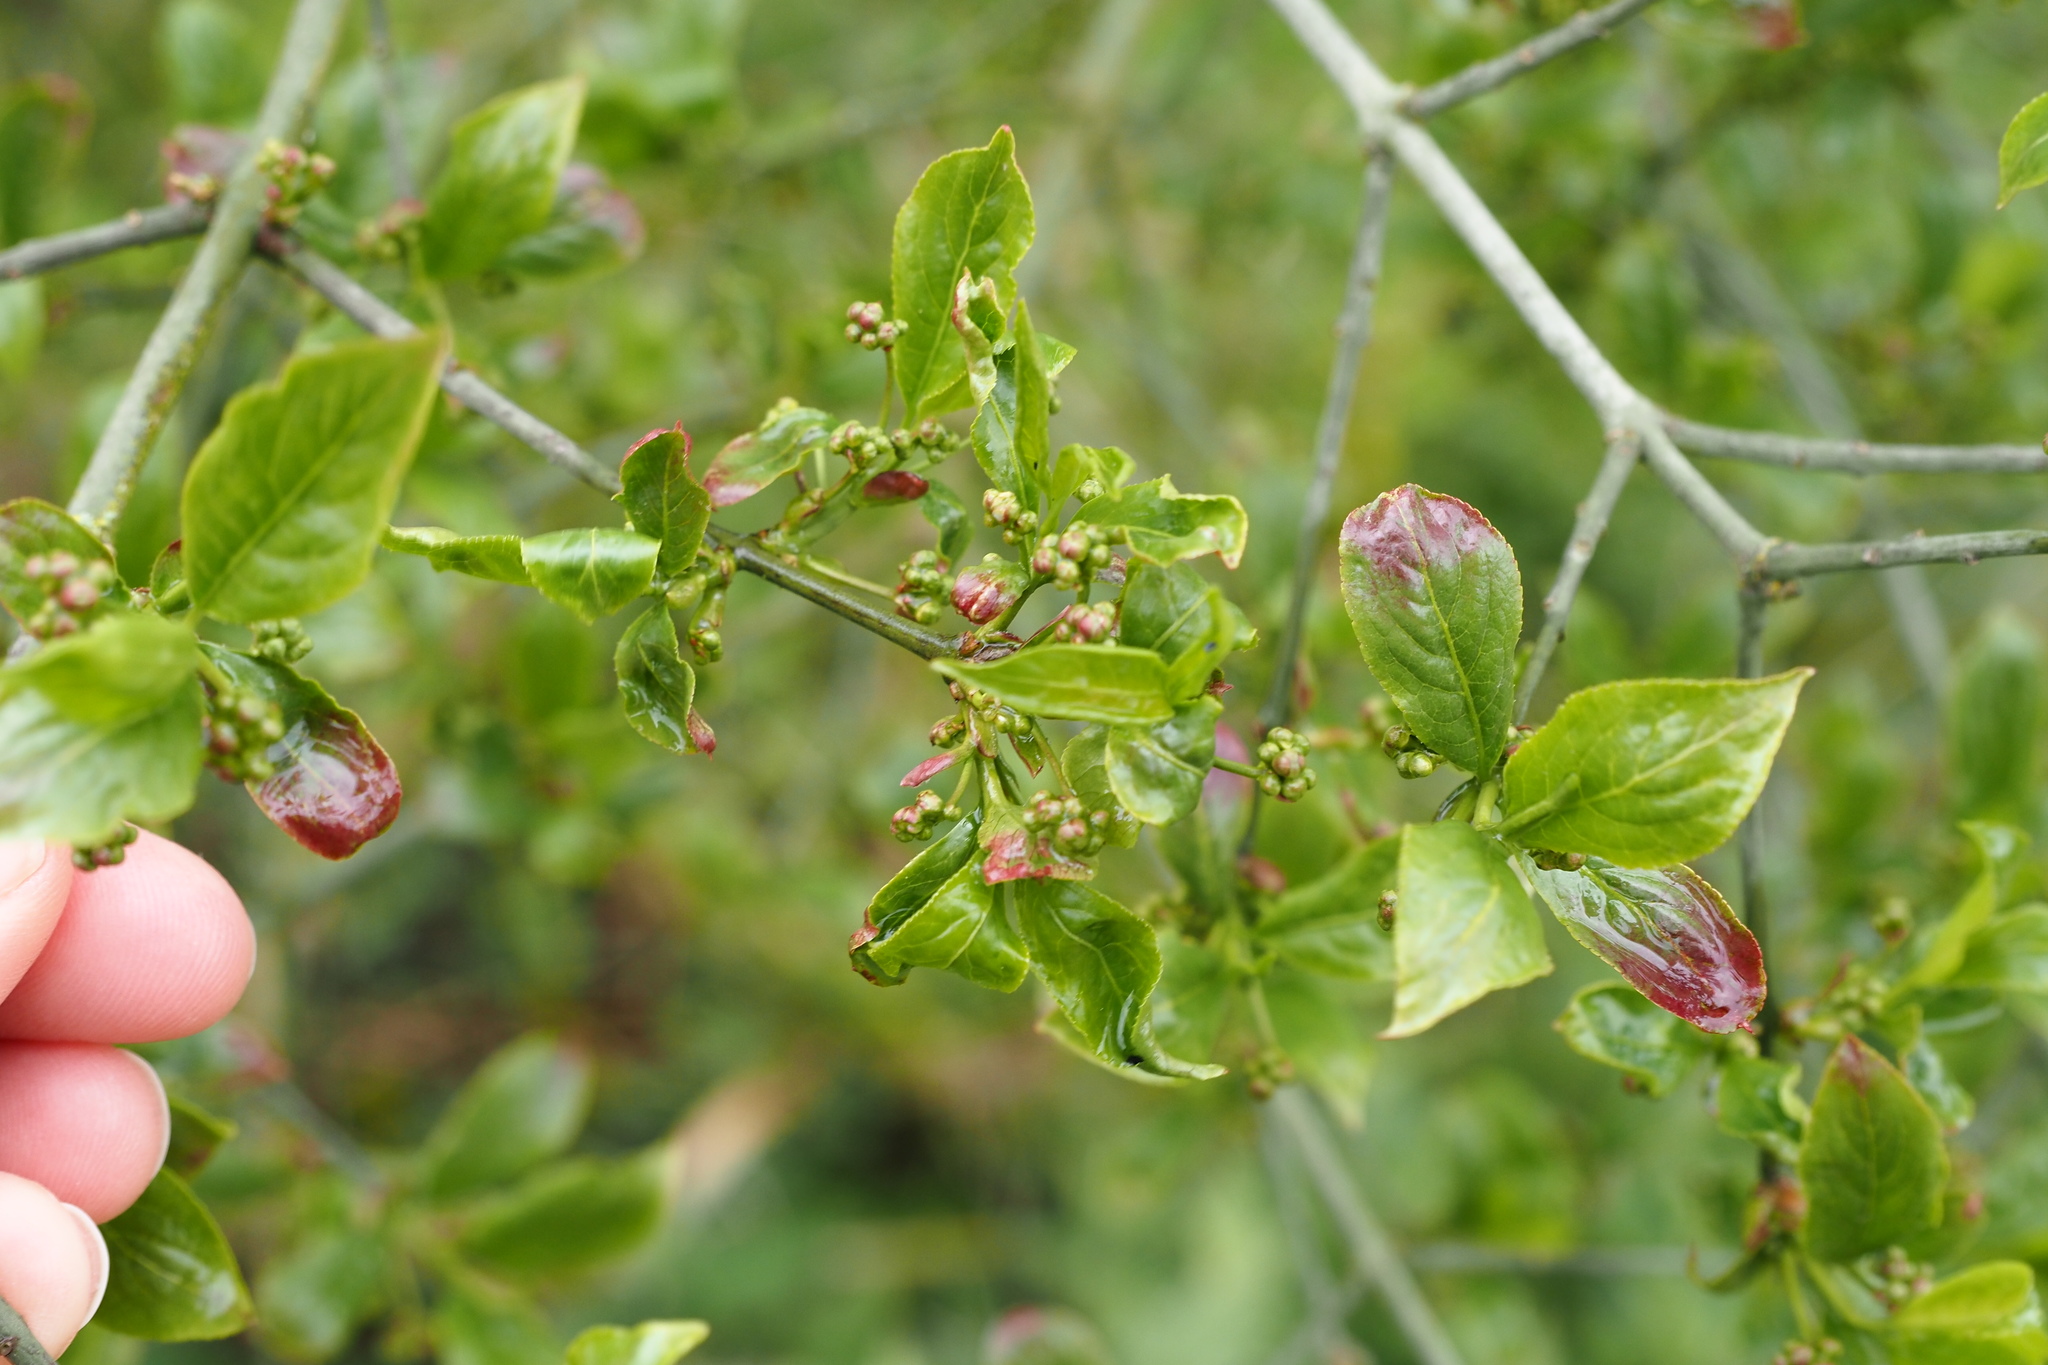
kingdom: Plantae
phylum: Tracheophyta
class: Magnoliopsida
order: Celastrales
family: Celastraceae
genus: Euonymus
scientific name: Euonymus europaeus
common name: Spindle
